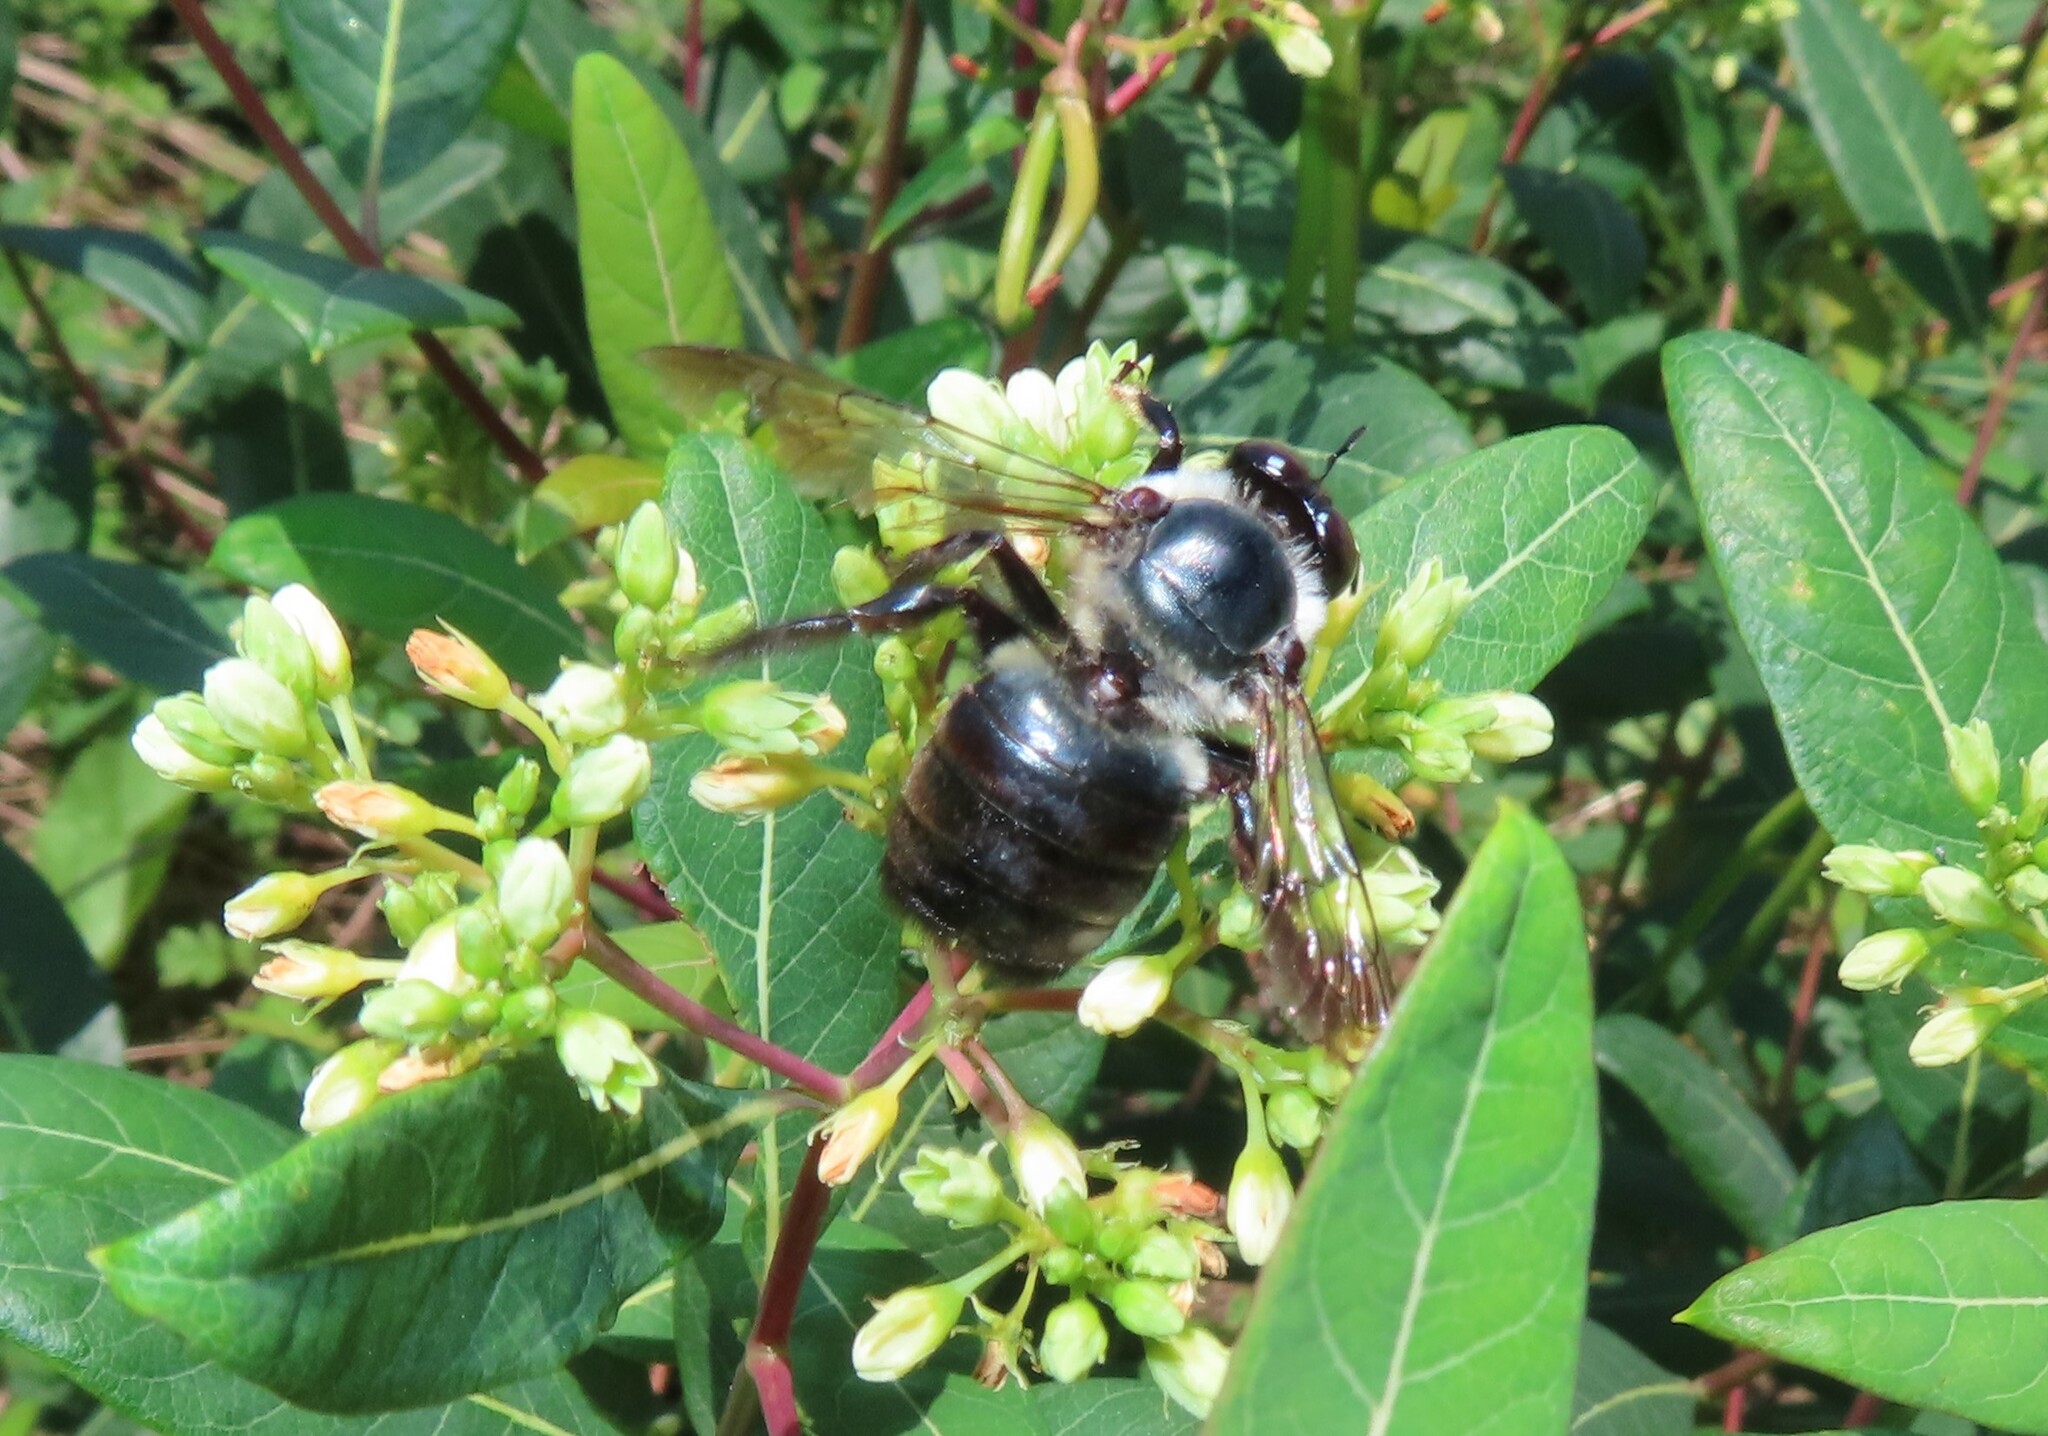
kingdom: Animalia
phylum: Arthropoda
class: Insecta
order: Hymenoptera
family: Apidae
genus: Xylocopa
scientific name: Xylocopa virginica
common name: Carpenter bee
